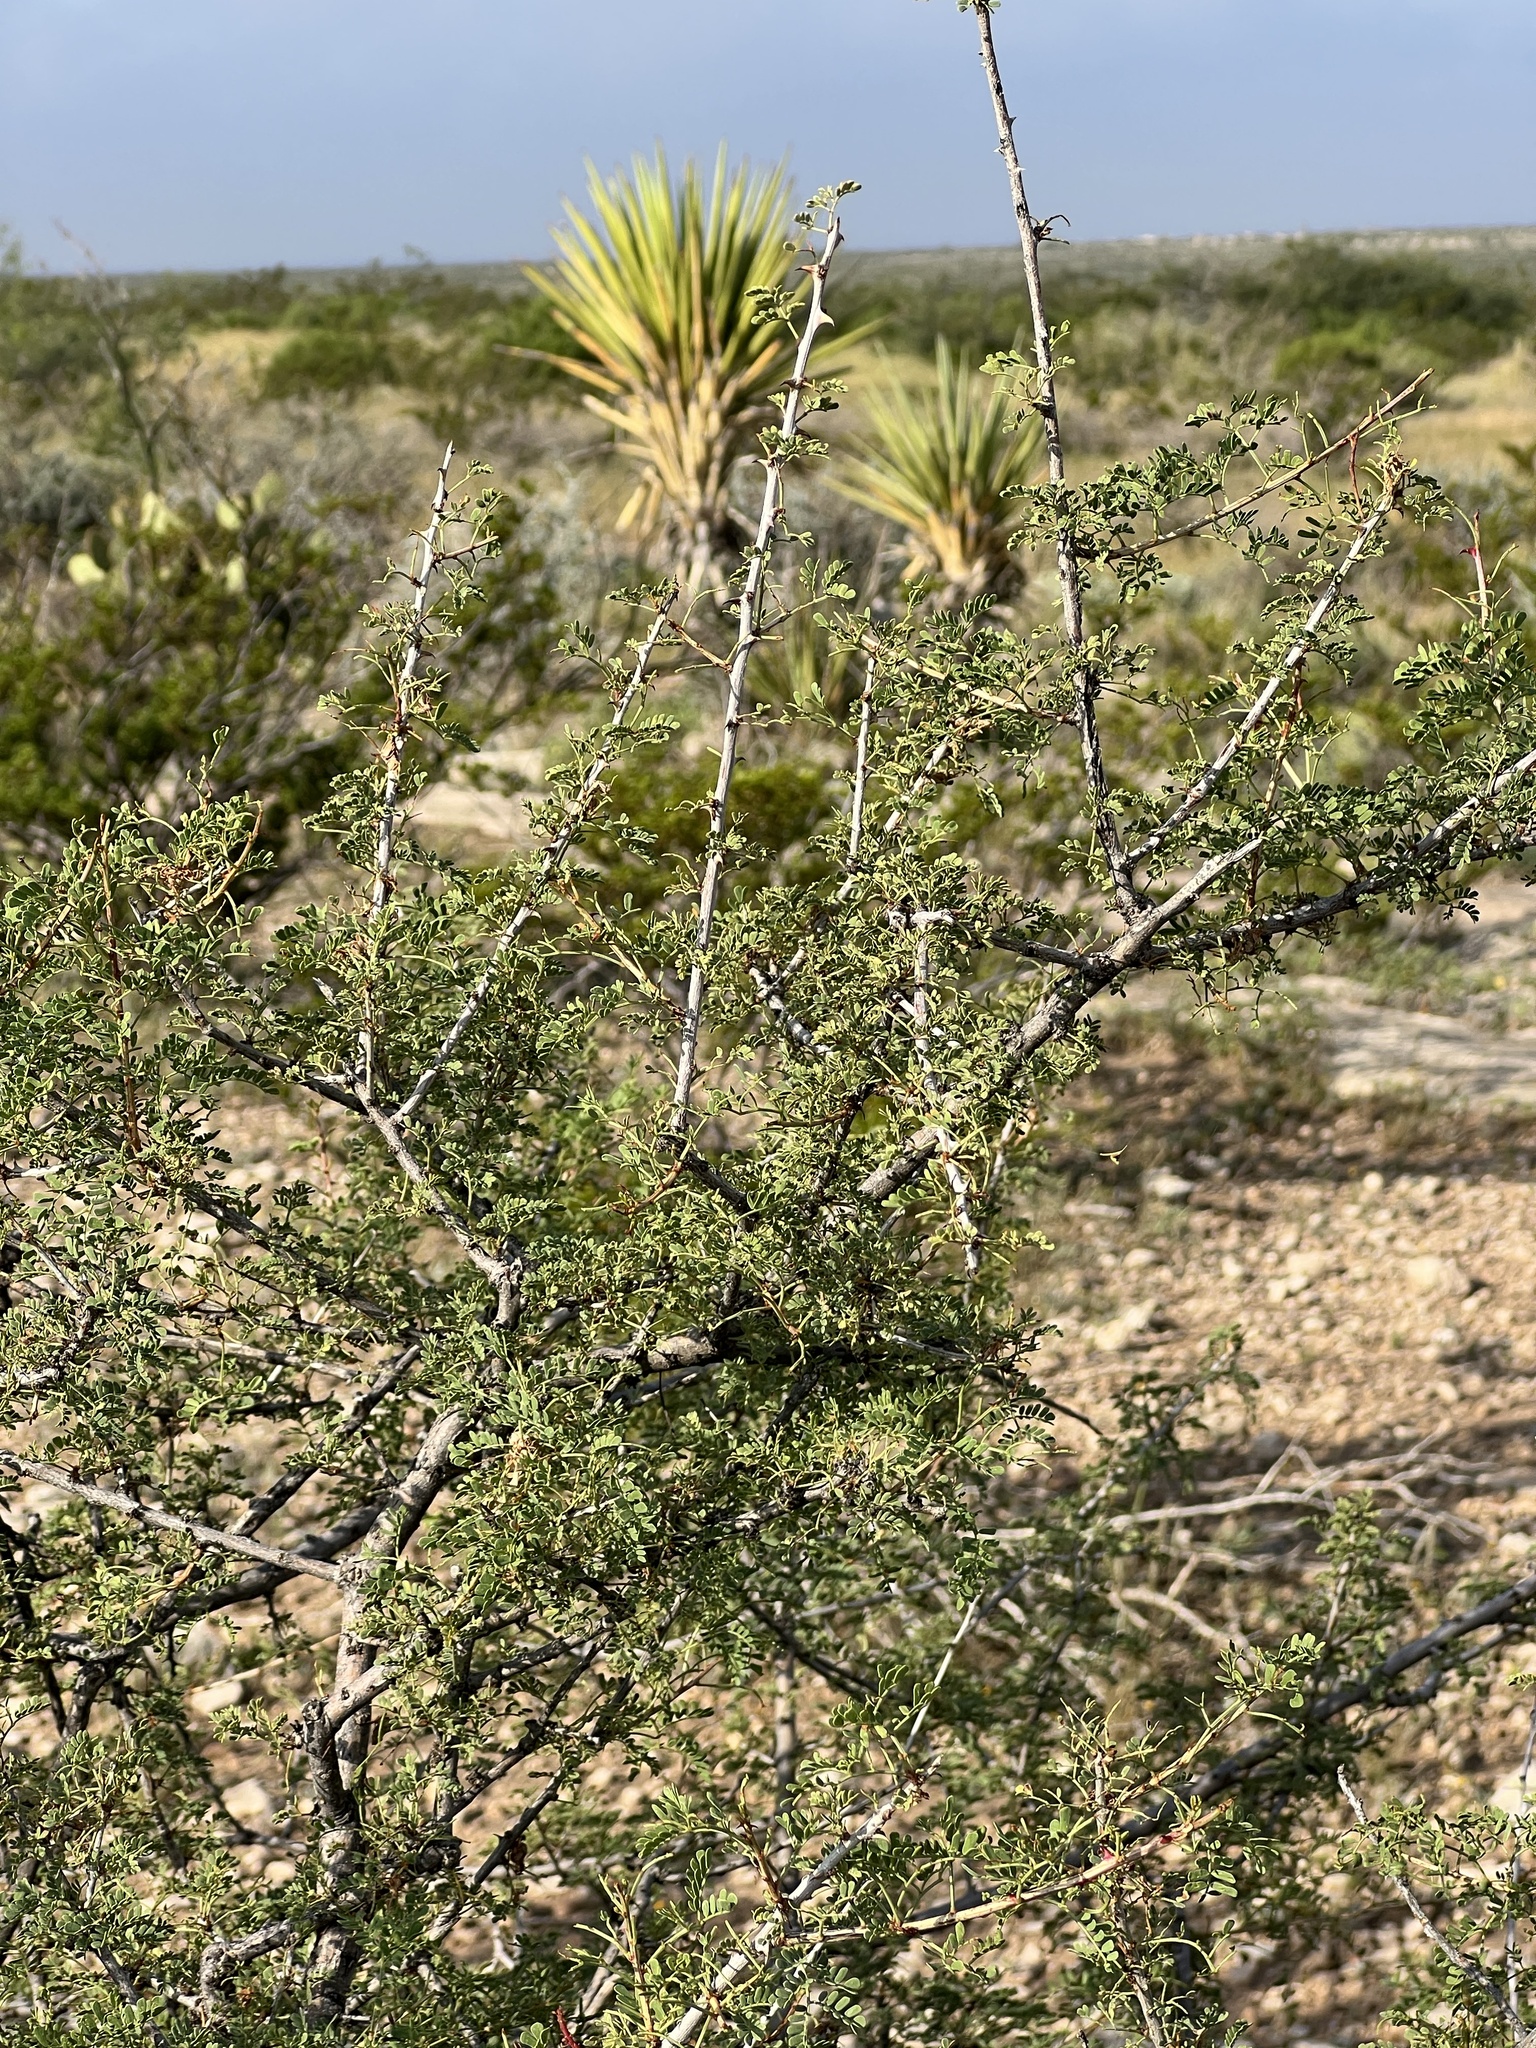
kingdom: Plantae
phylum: Tracheophyta
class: Magnoliopsida
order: Fabales
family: Fabaceae
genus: Senegalia
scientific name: Senegalia greggii
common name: Texas-mimosa
